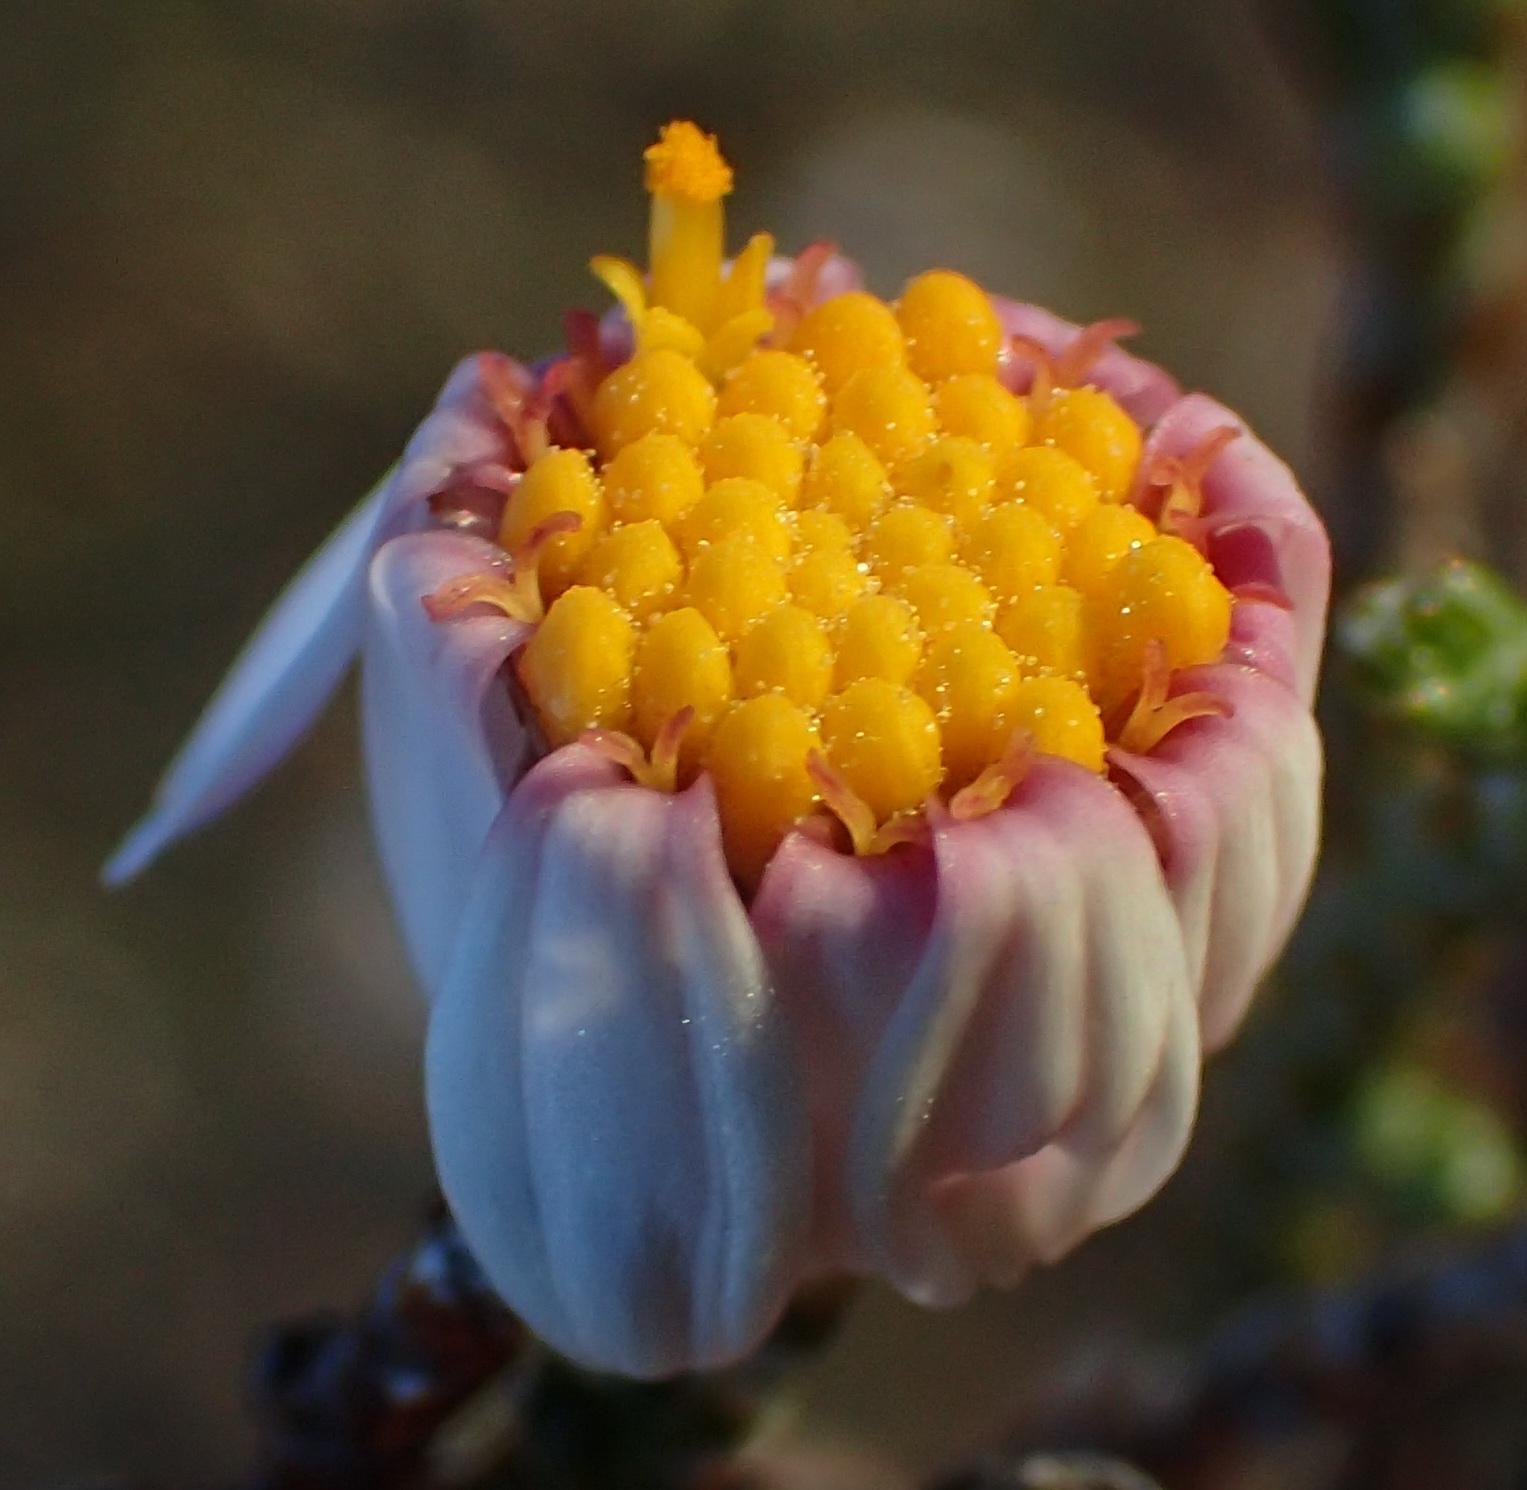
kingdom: Plantae
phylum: Tracheophyta
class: Magnoliopsida
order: Asterales
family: Asteraceae
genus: Phymaspermum
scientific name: Phymaspermum appressum
